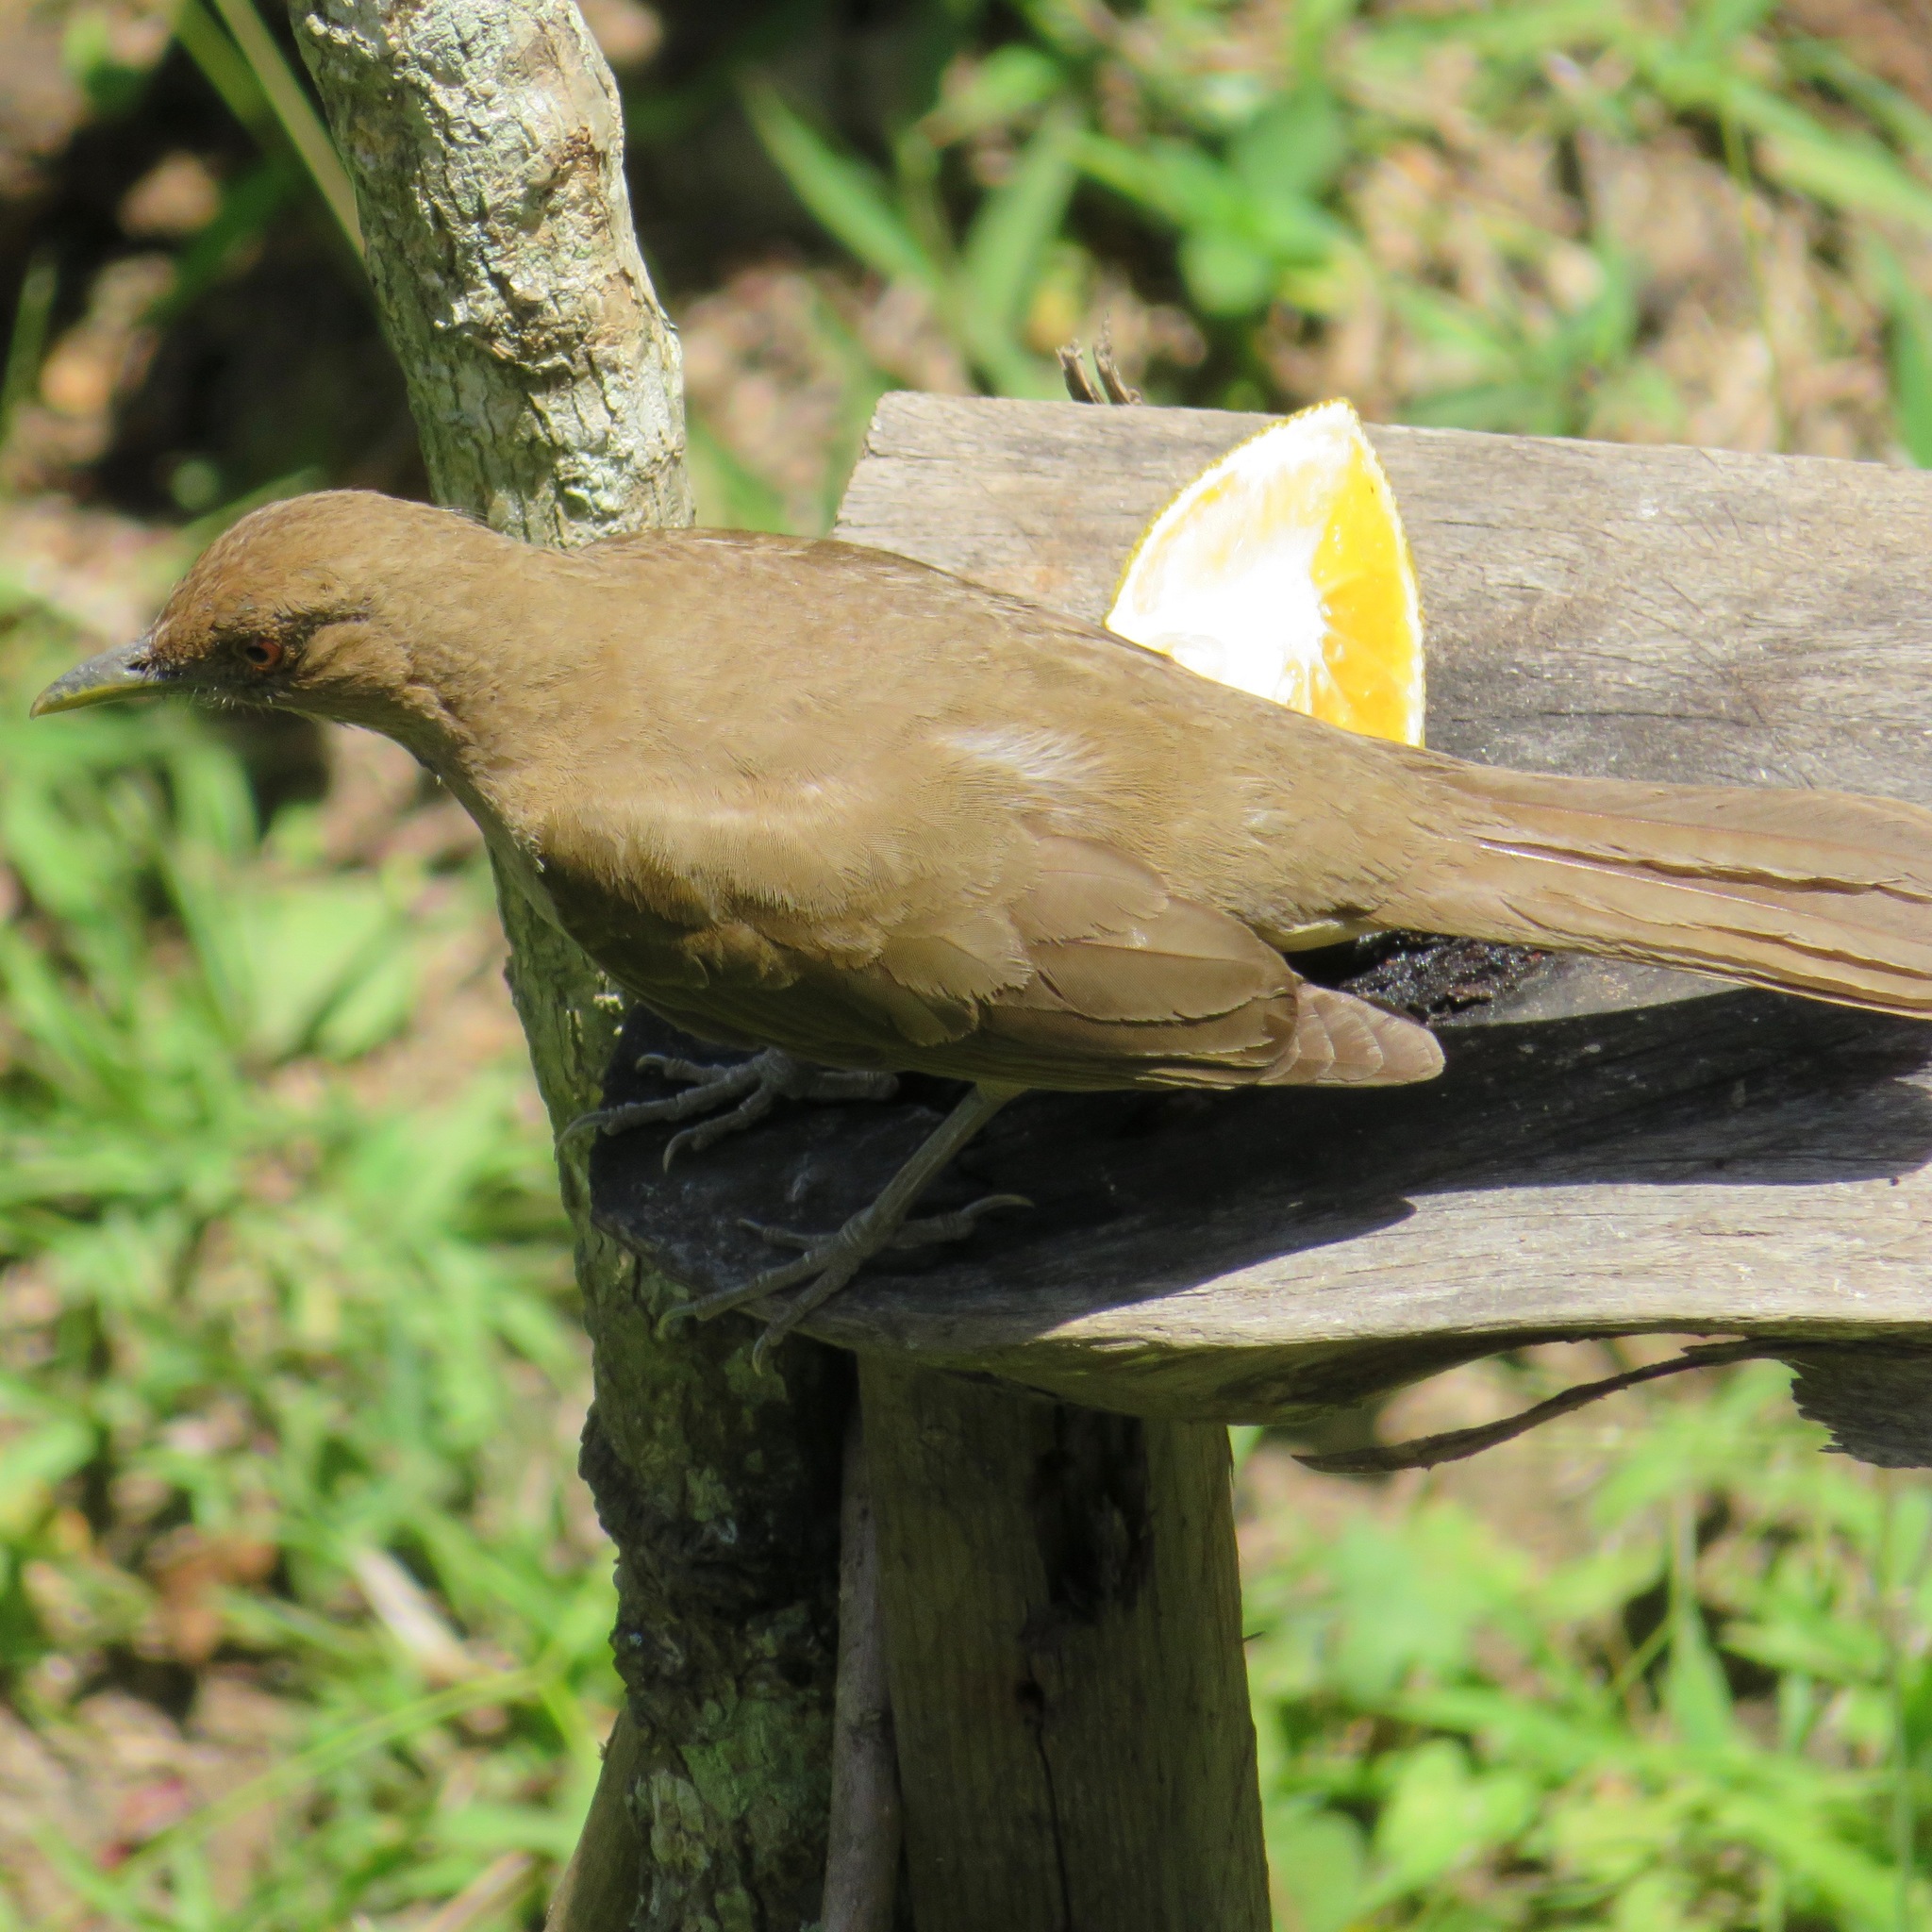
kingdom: Animalia
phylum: Chordata
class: Aves
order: Passeriformes
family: Turdidae
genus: Turdus
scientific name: Turdus grayi
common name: Clay-colored thrush
